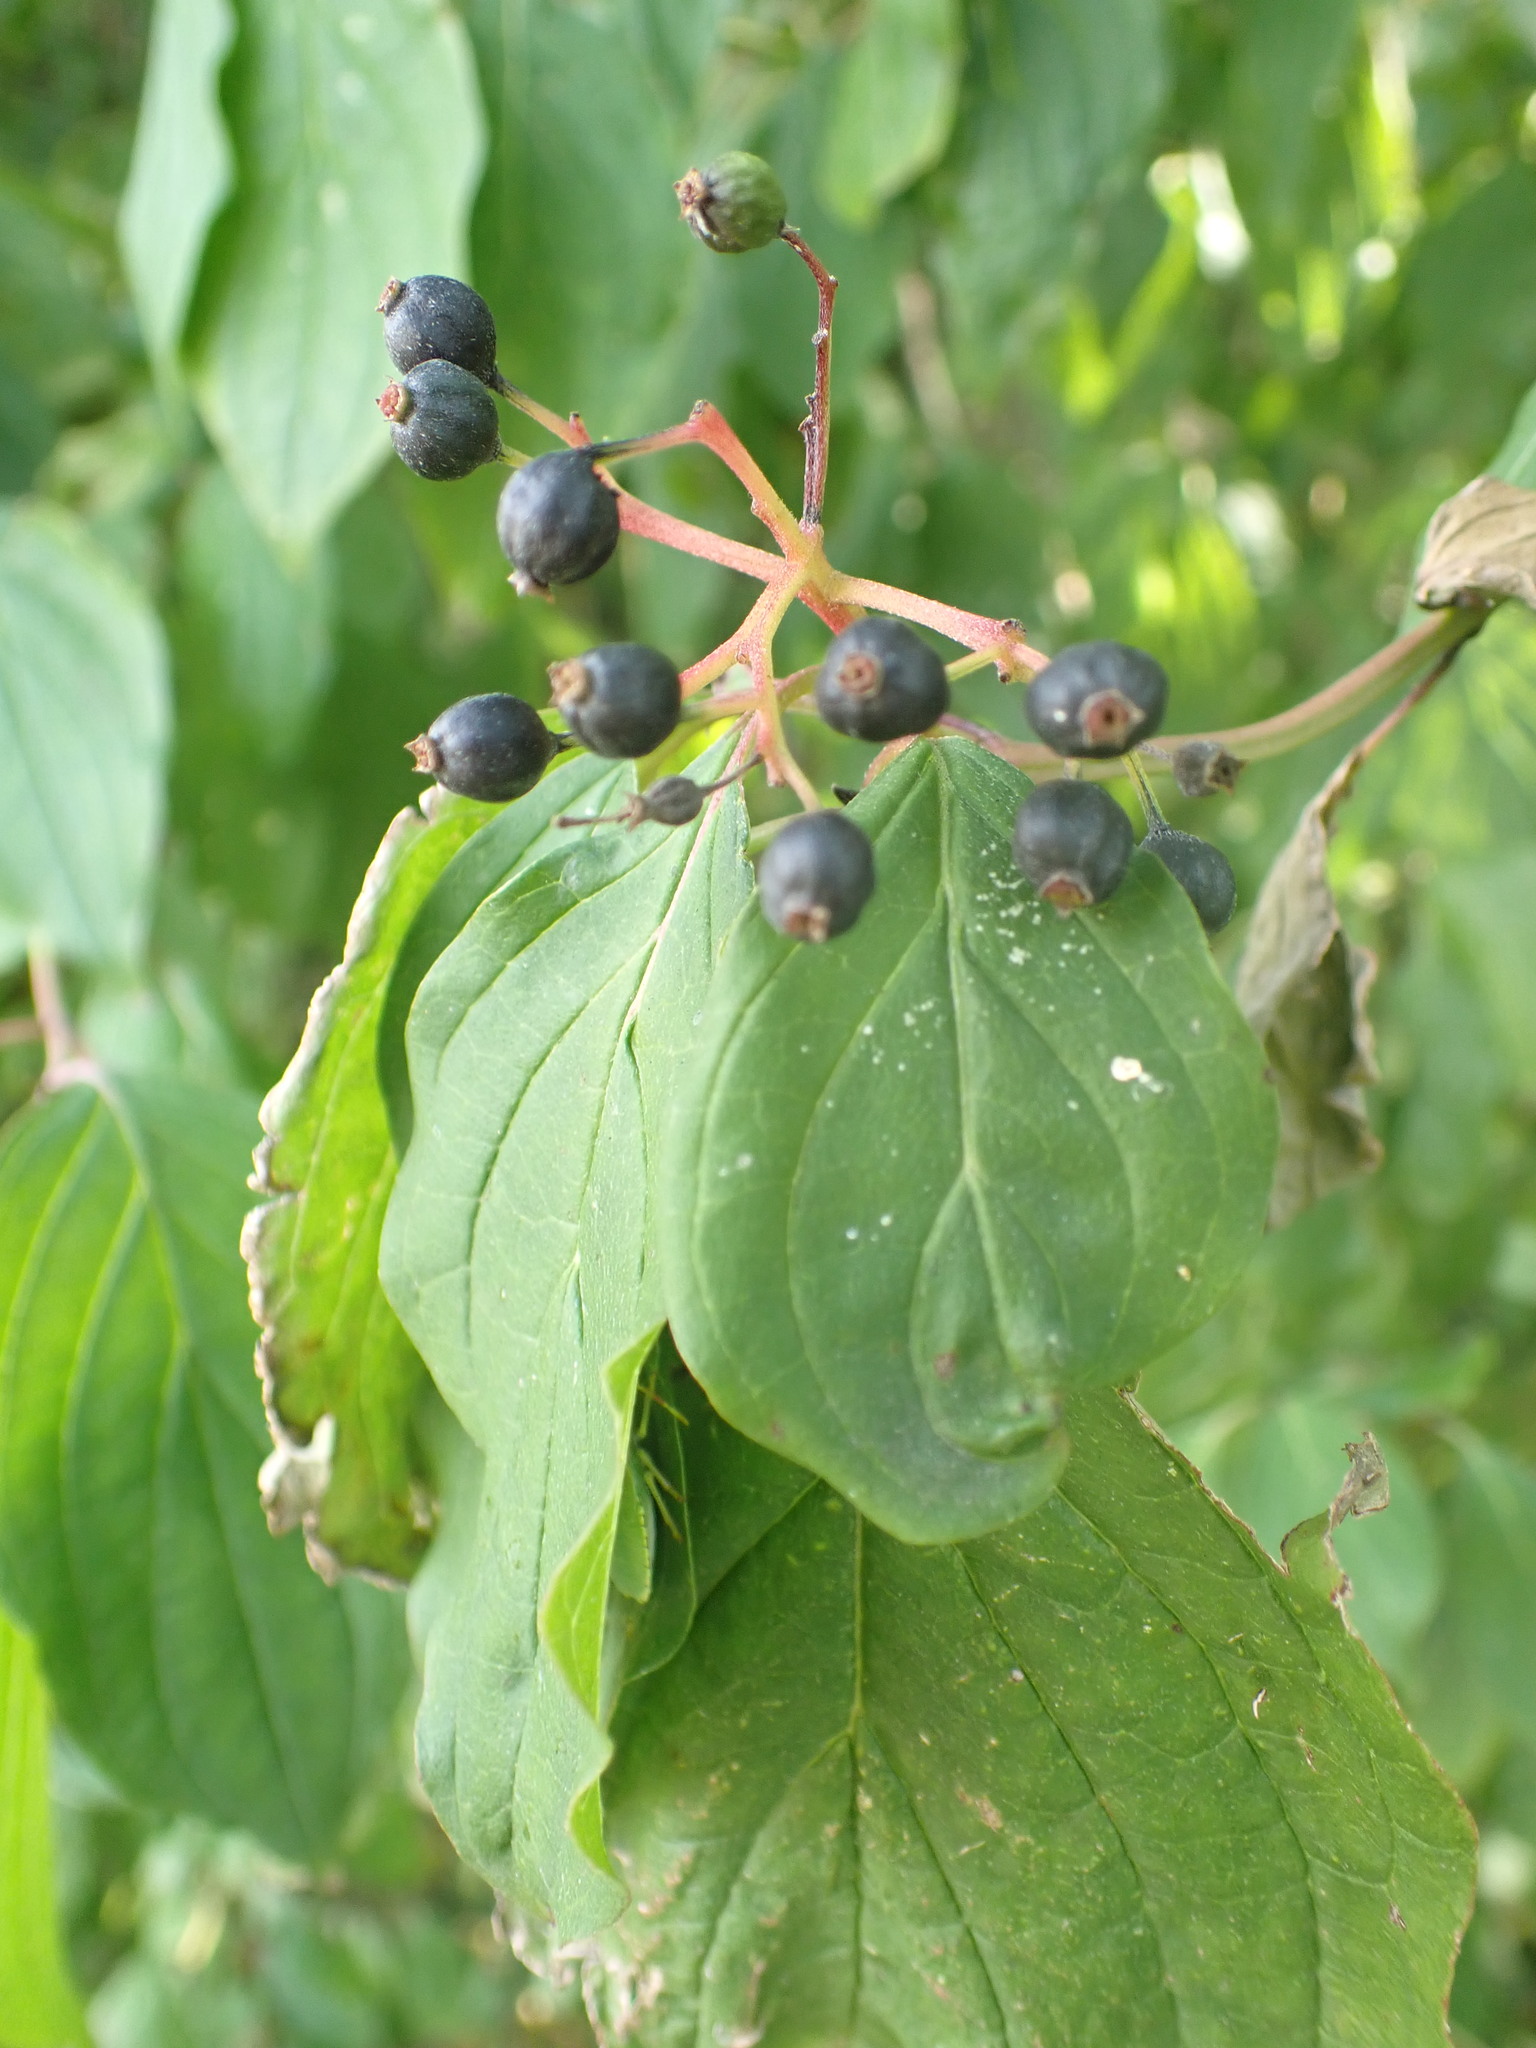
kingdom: Plantae
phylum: Tracheophyta
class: Magnoliopsida
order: Cornales
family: Cornaceae
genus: Cornus
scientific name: Cornus sanguinea
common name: Dogwood
